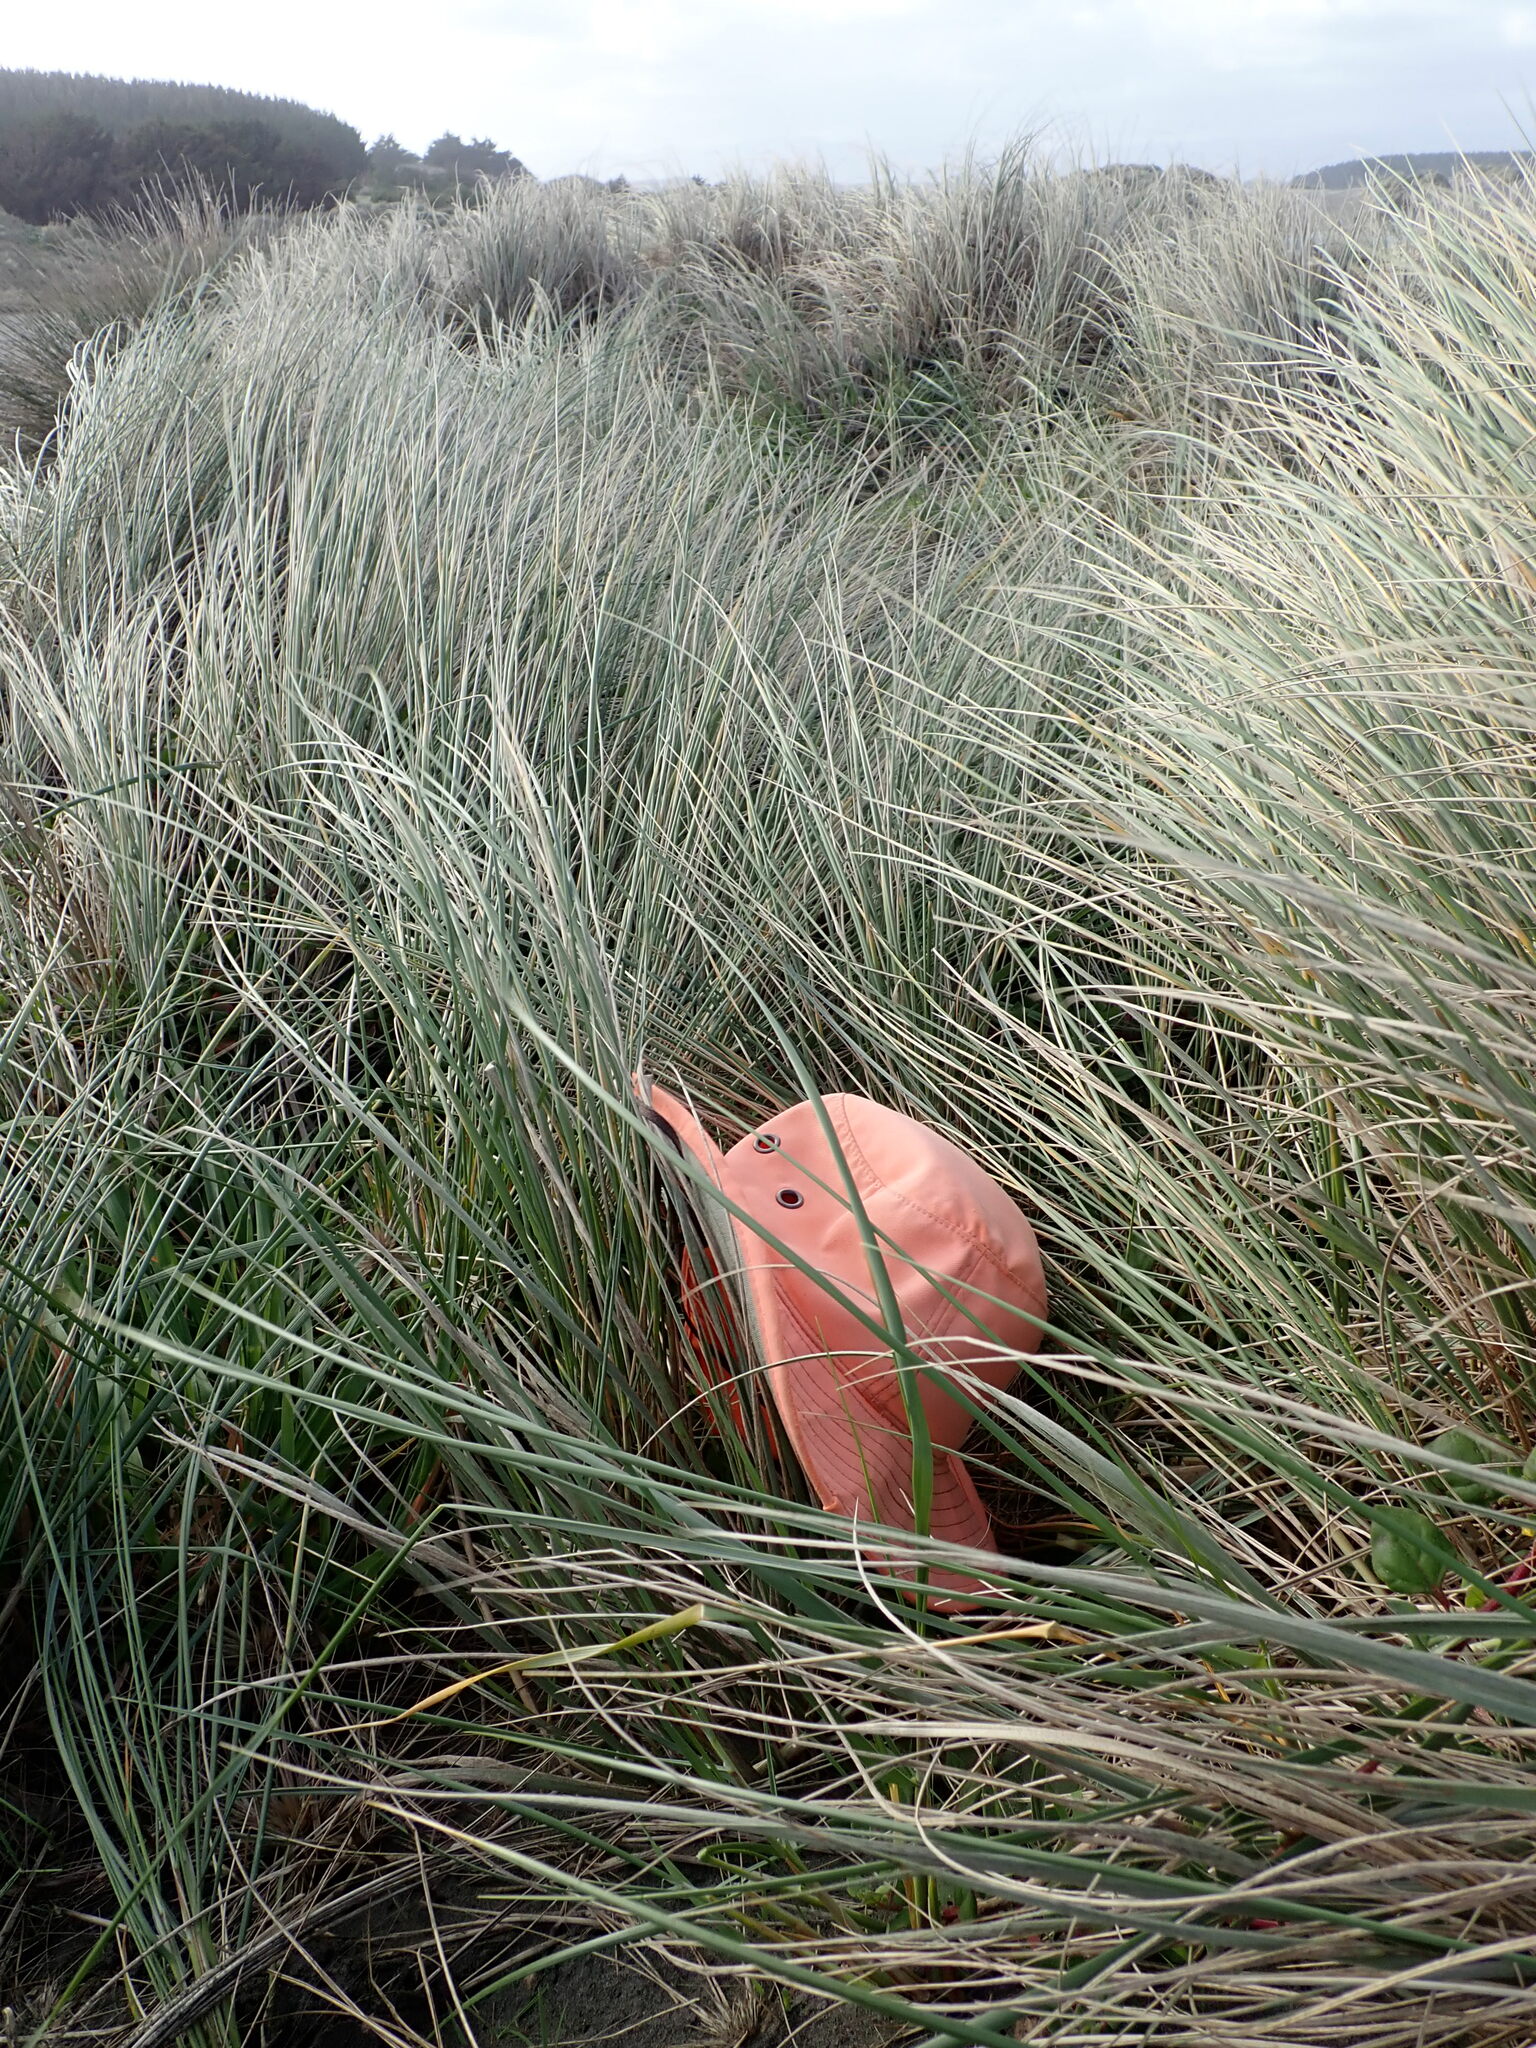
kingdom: Plantae
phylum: Tracheophyta
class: Magnoliopsida
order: Caryophyllales
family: Aizoaceae
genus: Tetragonia
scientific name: Tetragonia implexicoma
